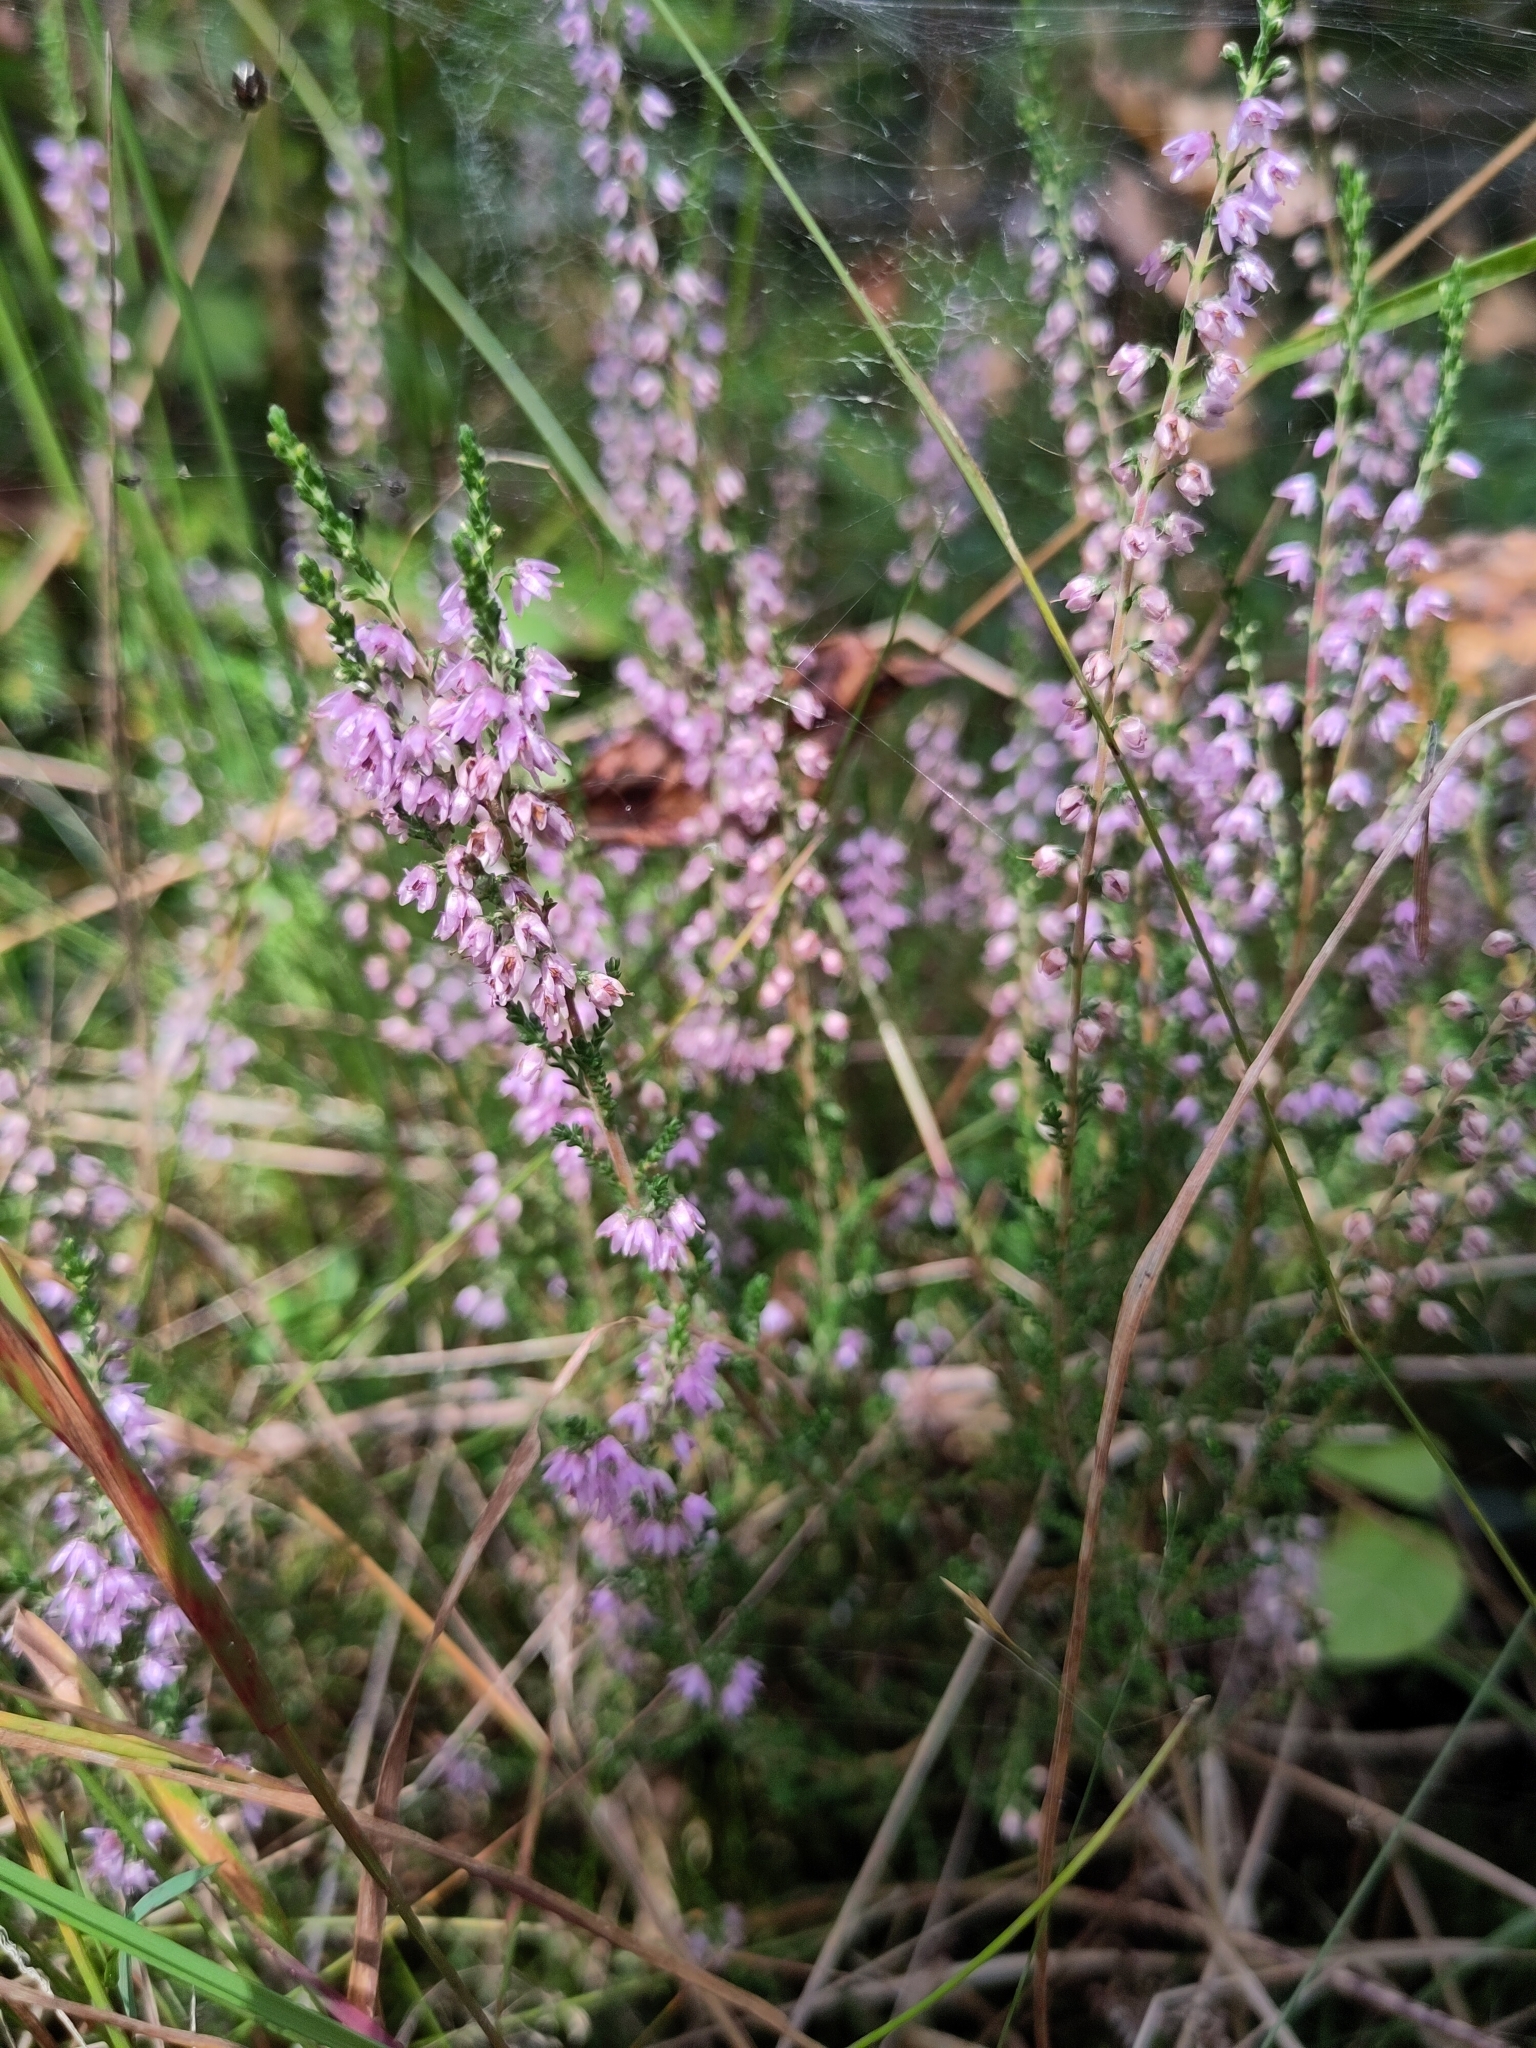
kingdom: Plantae
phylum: Tracheophyta
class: Magnoliopsida
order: Ericales
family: Ericaceae
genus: Calluna
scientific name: Calluna vulgaris
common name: Heather
